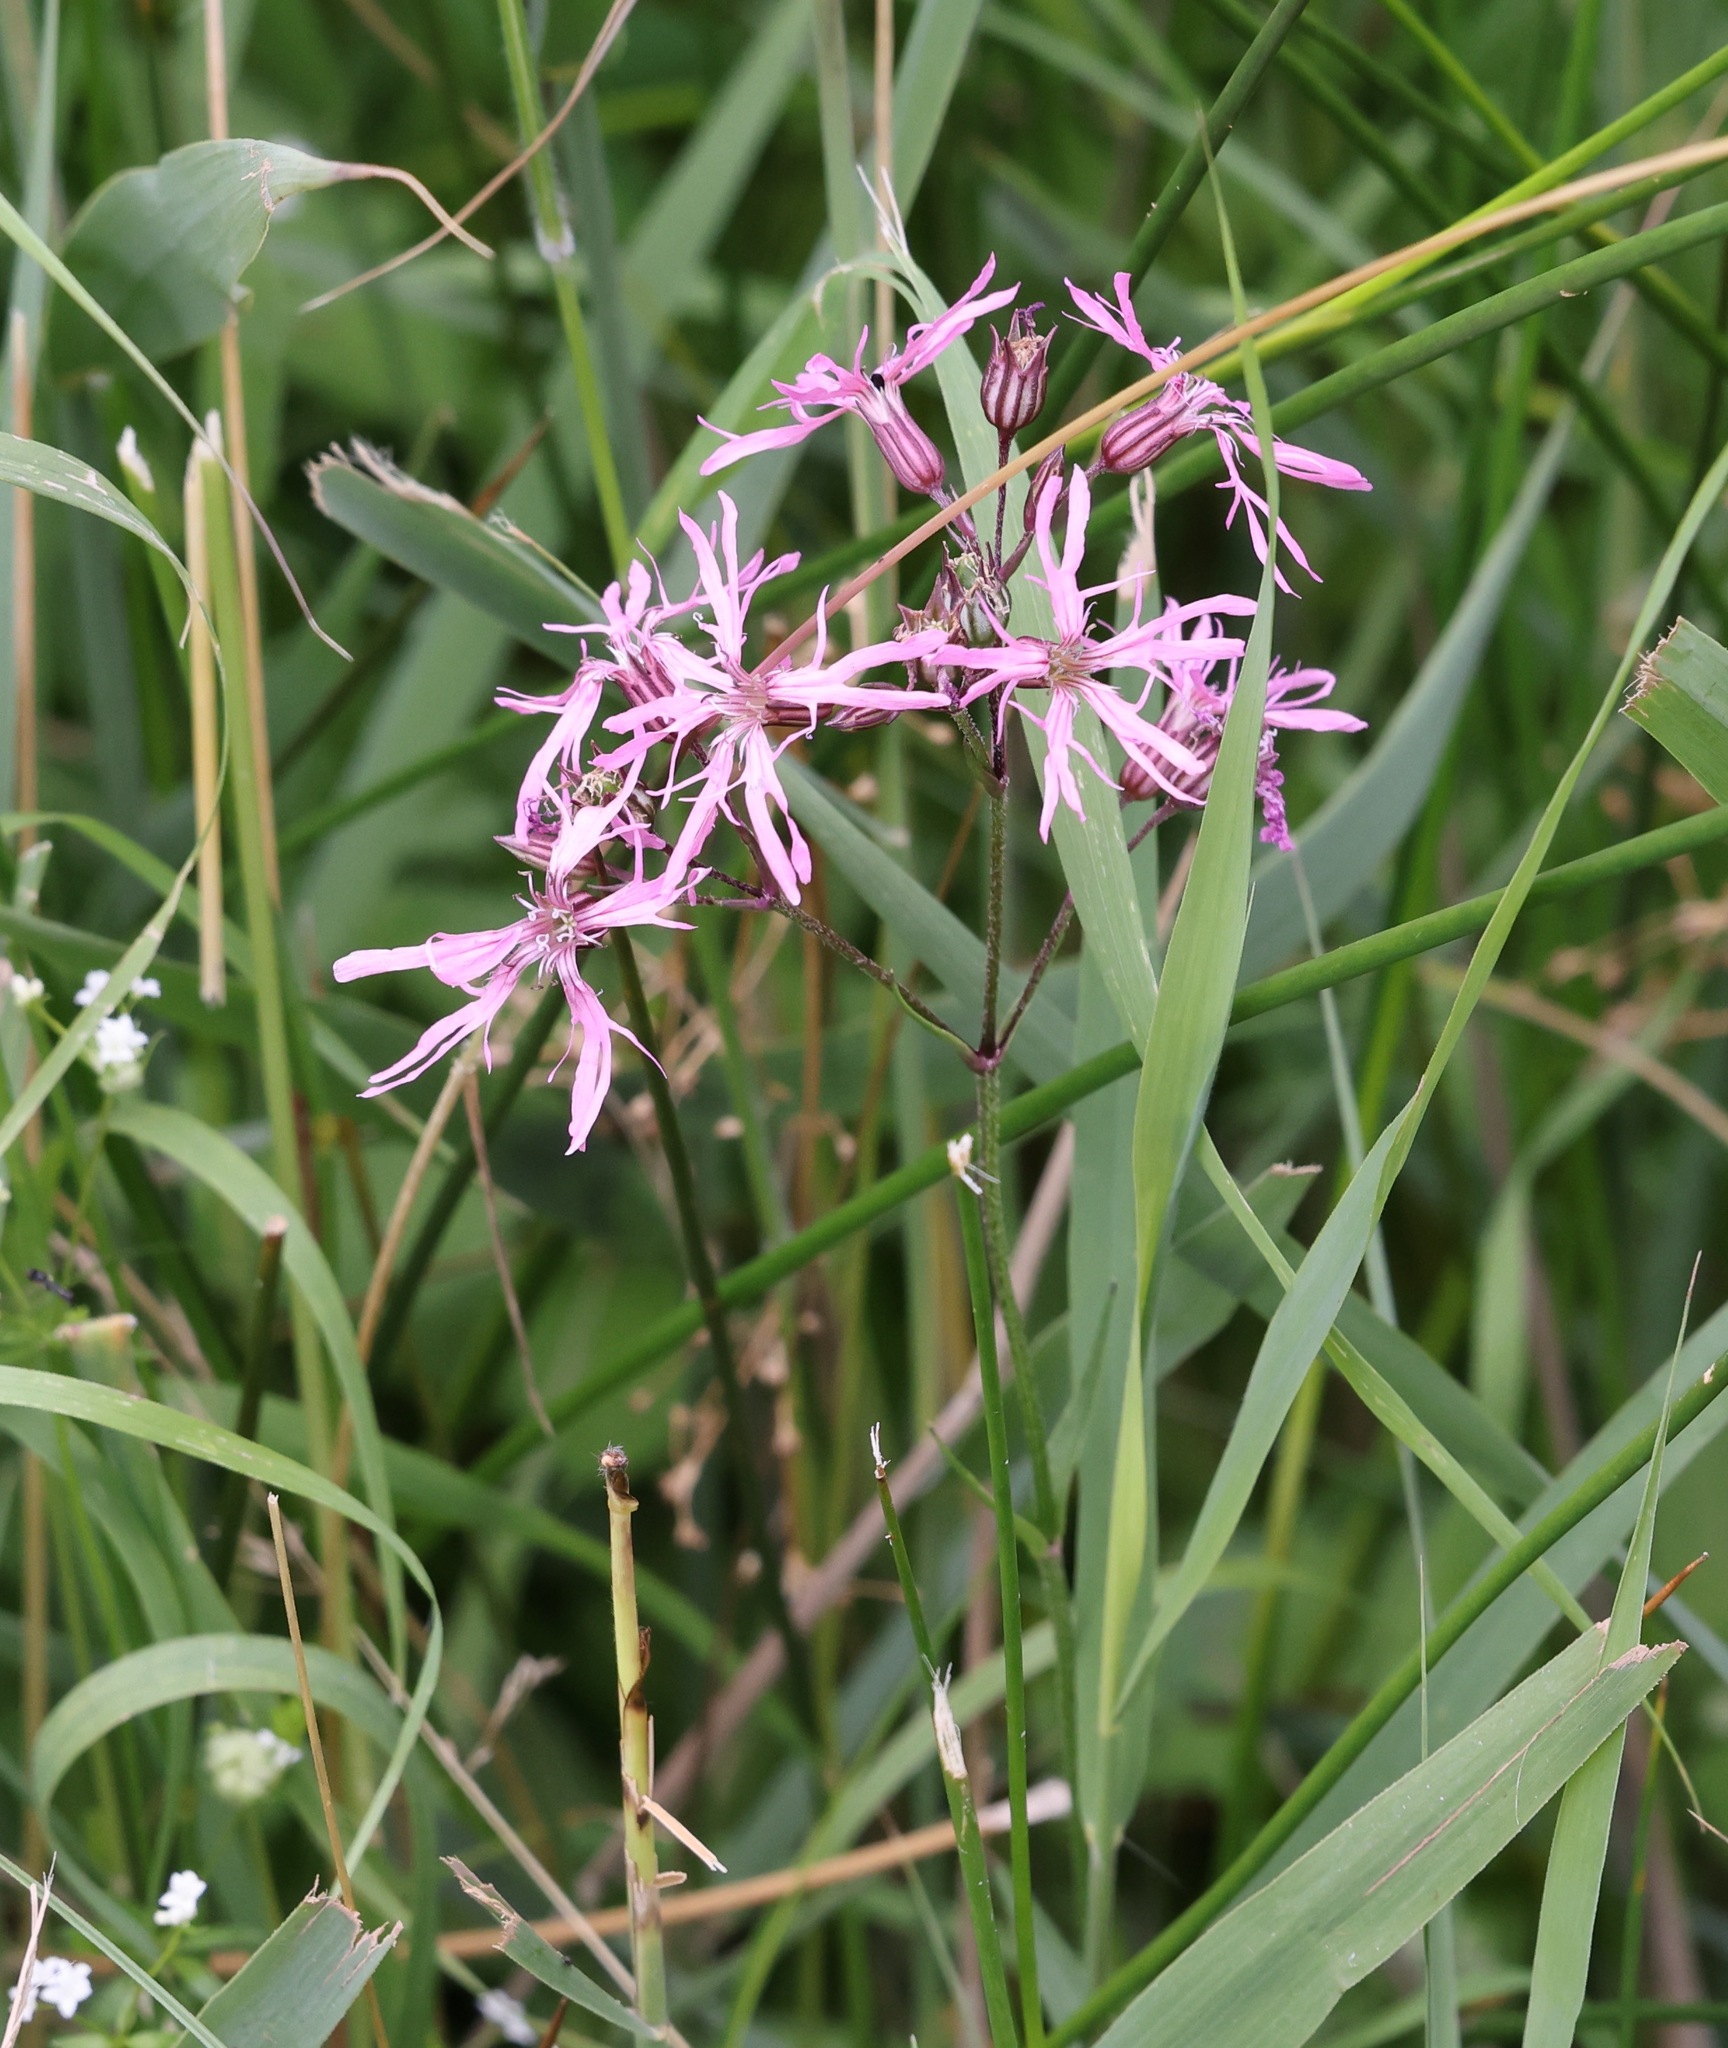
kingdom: Plantae
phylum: Tracheophyta
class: Magnoliopsida
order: Caryophyllales
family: Caryophyllaceae
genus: Silene
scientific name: Silene flos-cuculi
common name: Ragged-robin
